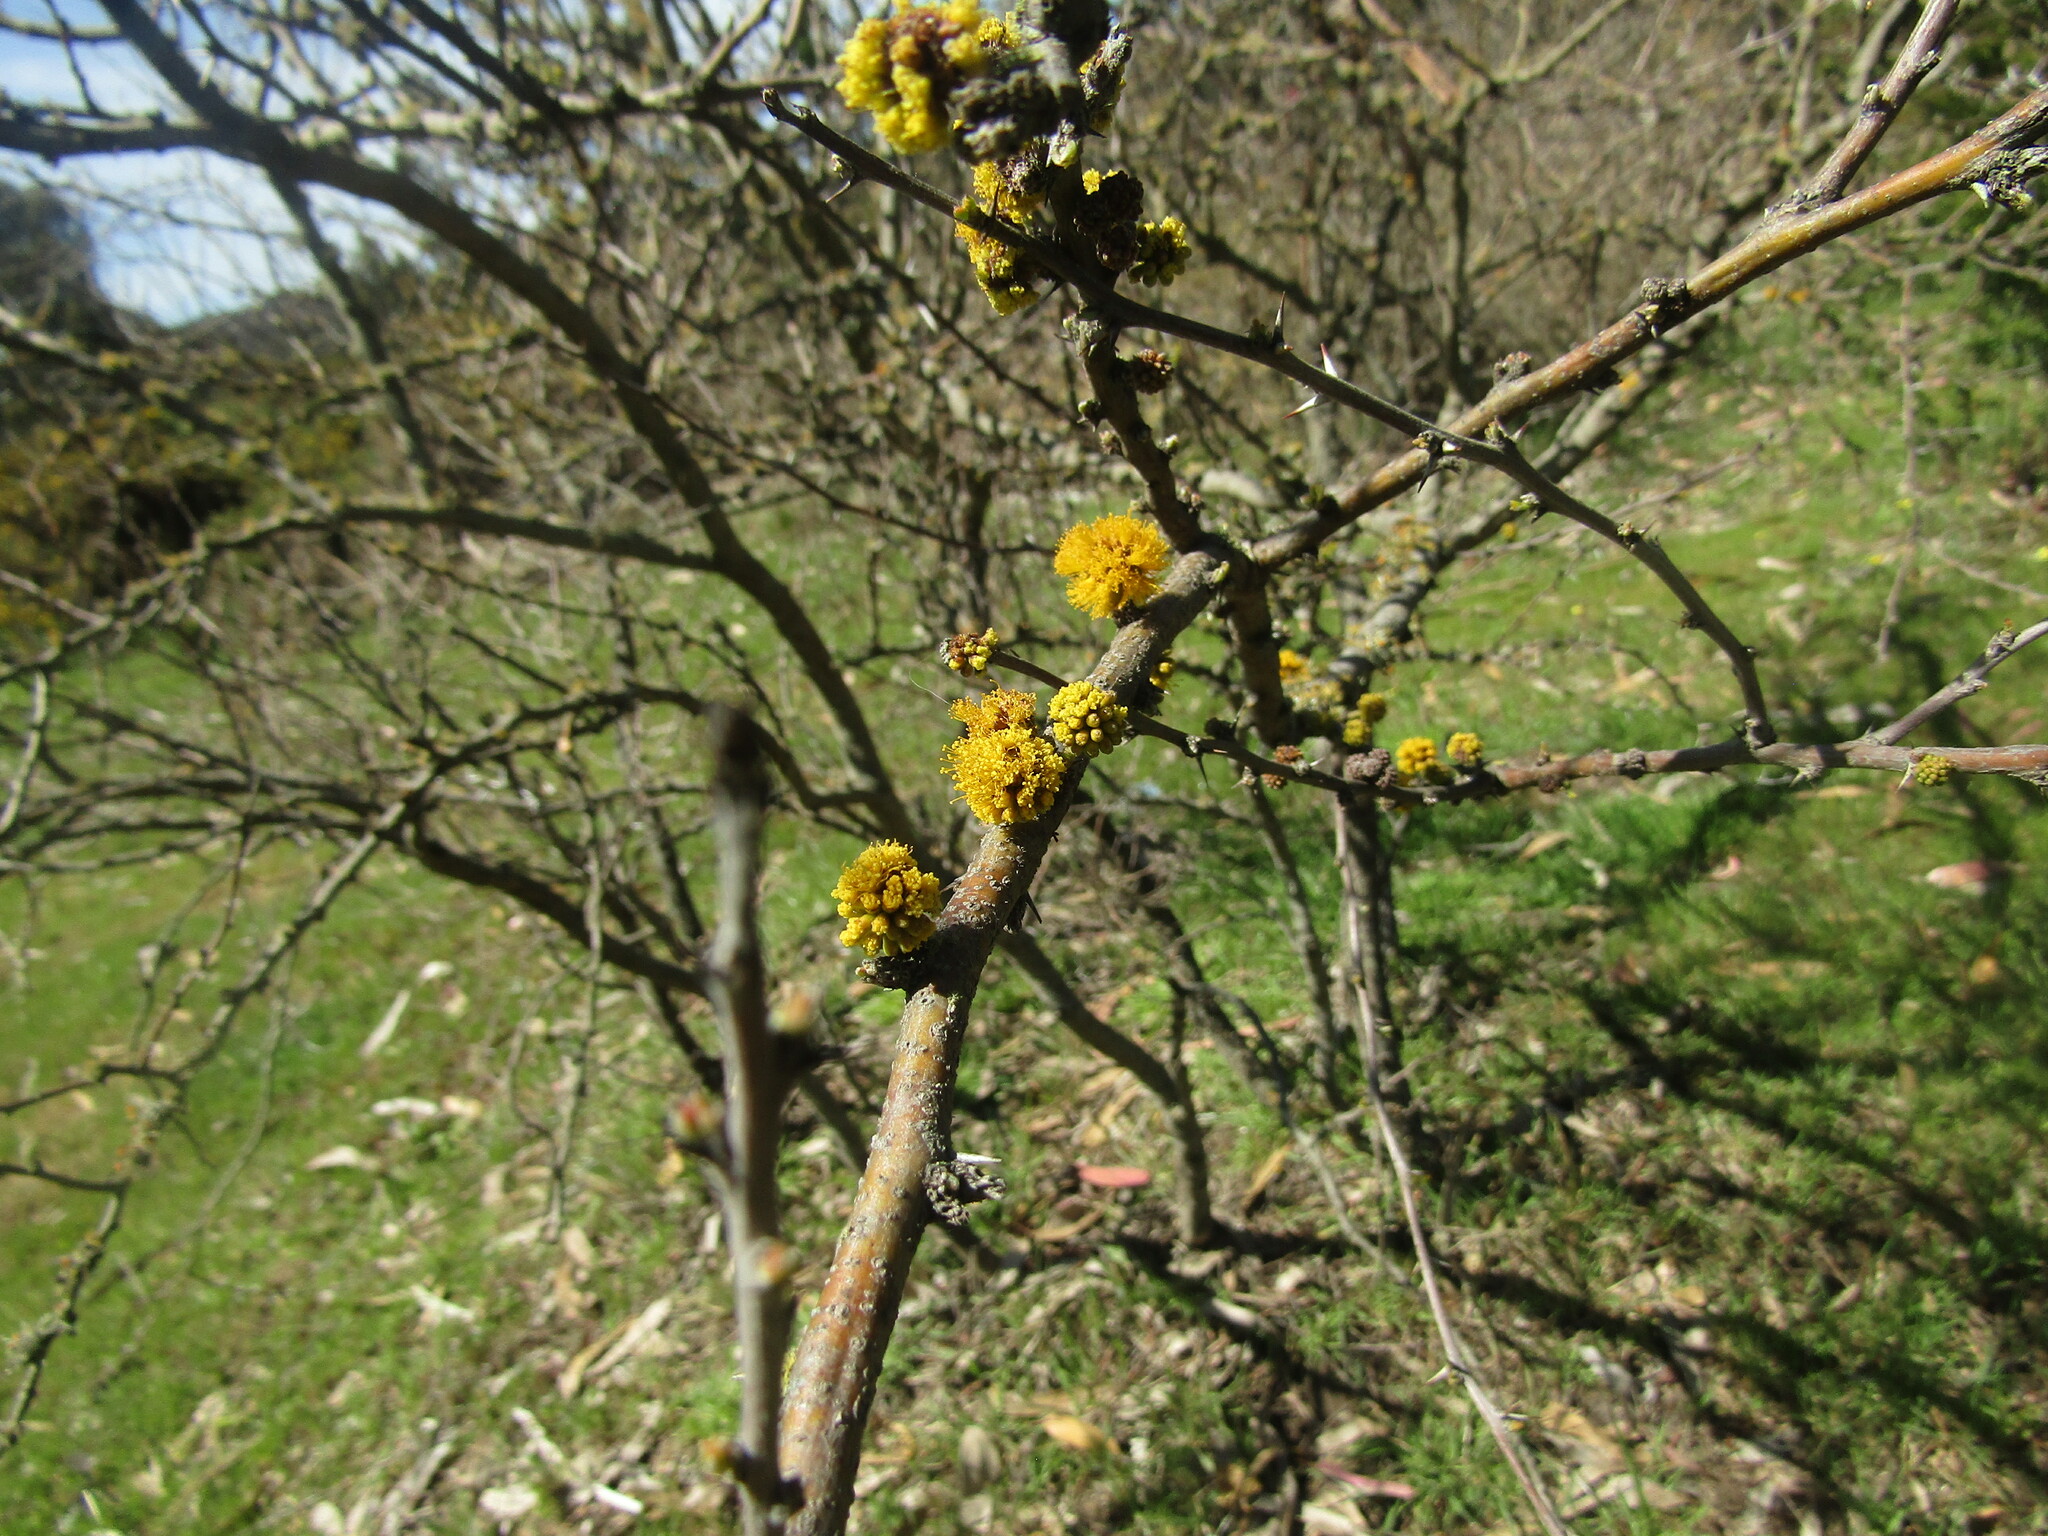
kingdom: Plantae
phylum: Tracheophyta
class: Magnoliopsida
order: Fabales
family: Fabaceae
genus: Vachellia
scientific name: Vachellia caven
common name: Roman cassie
